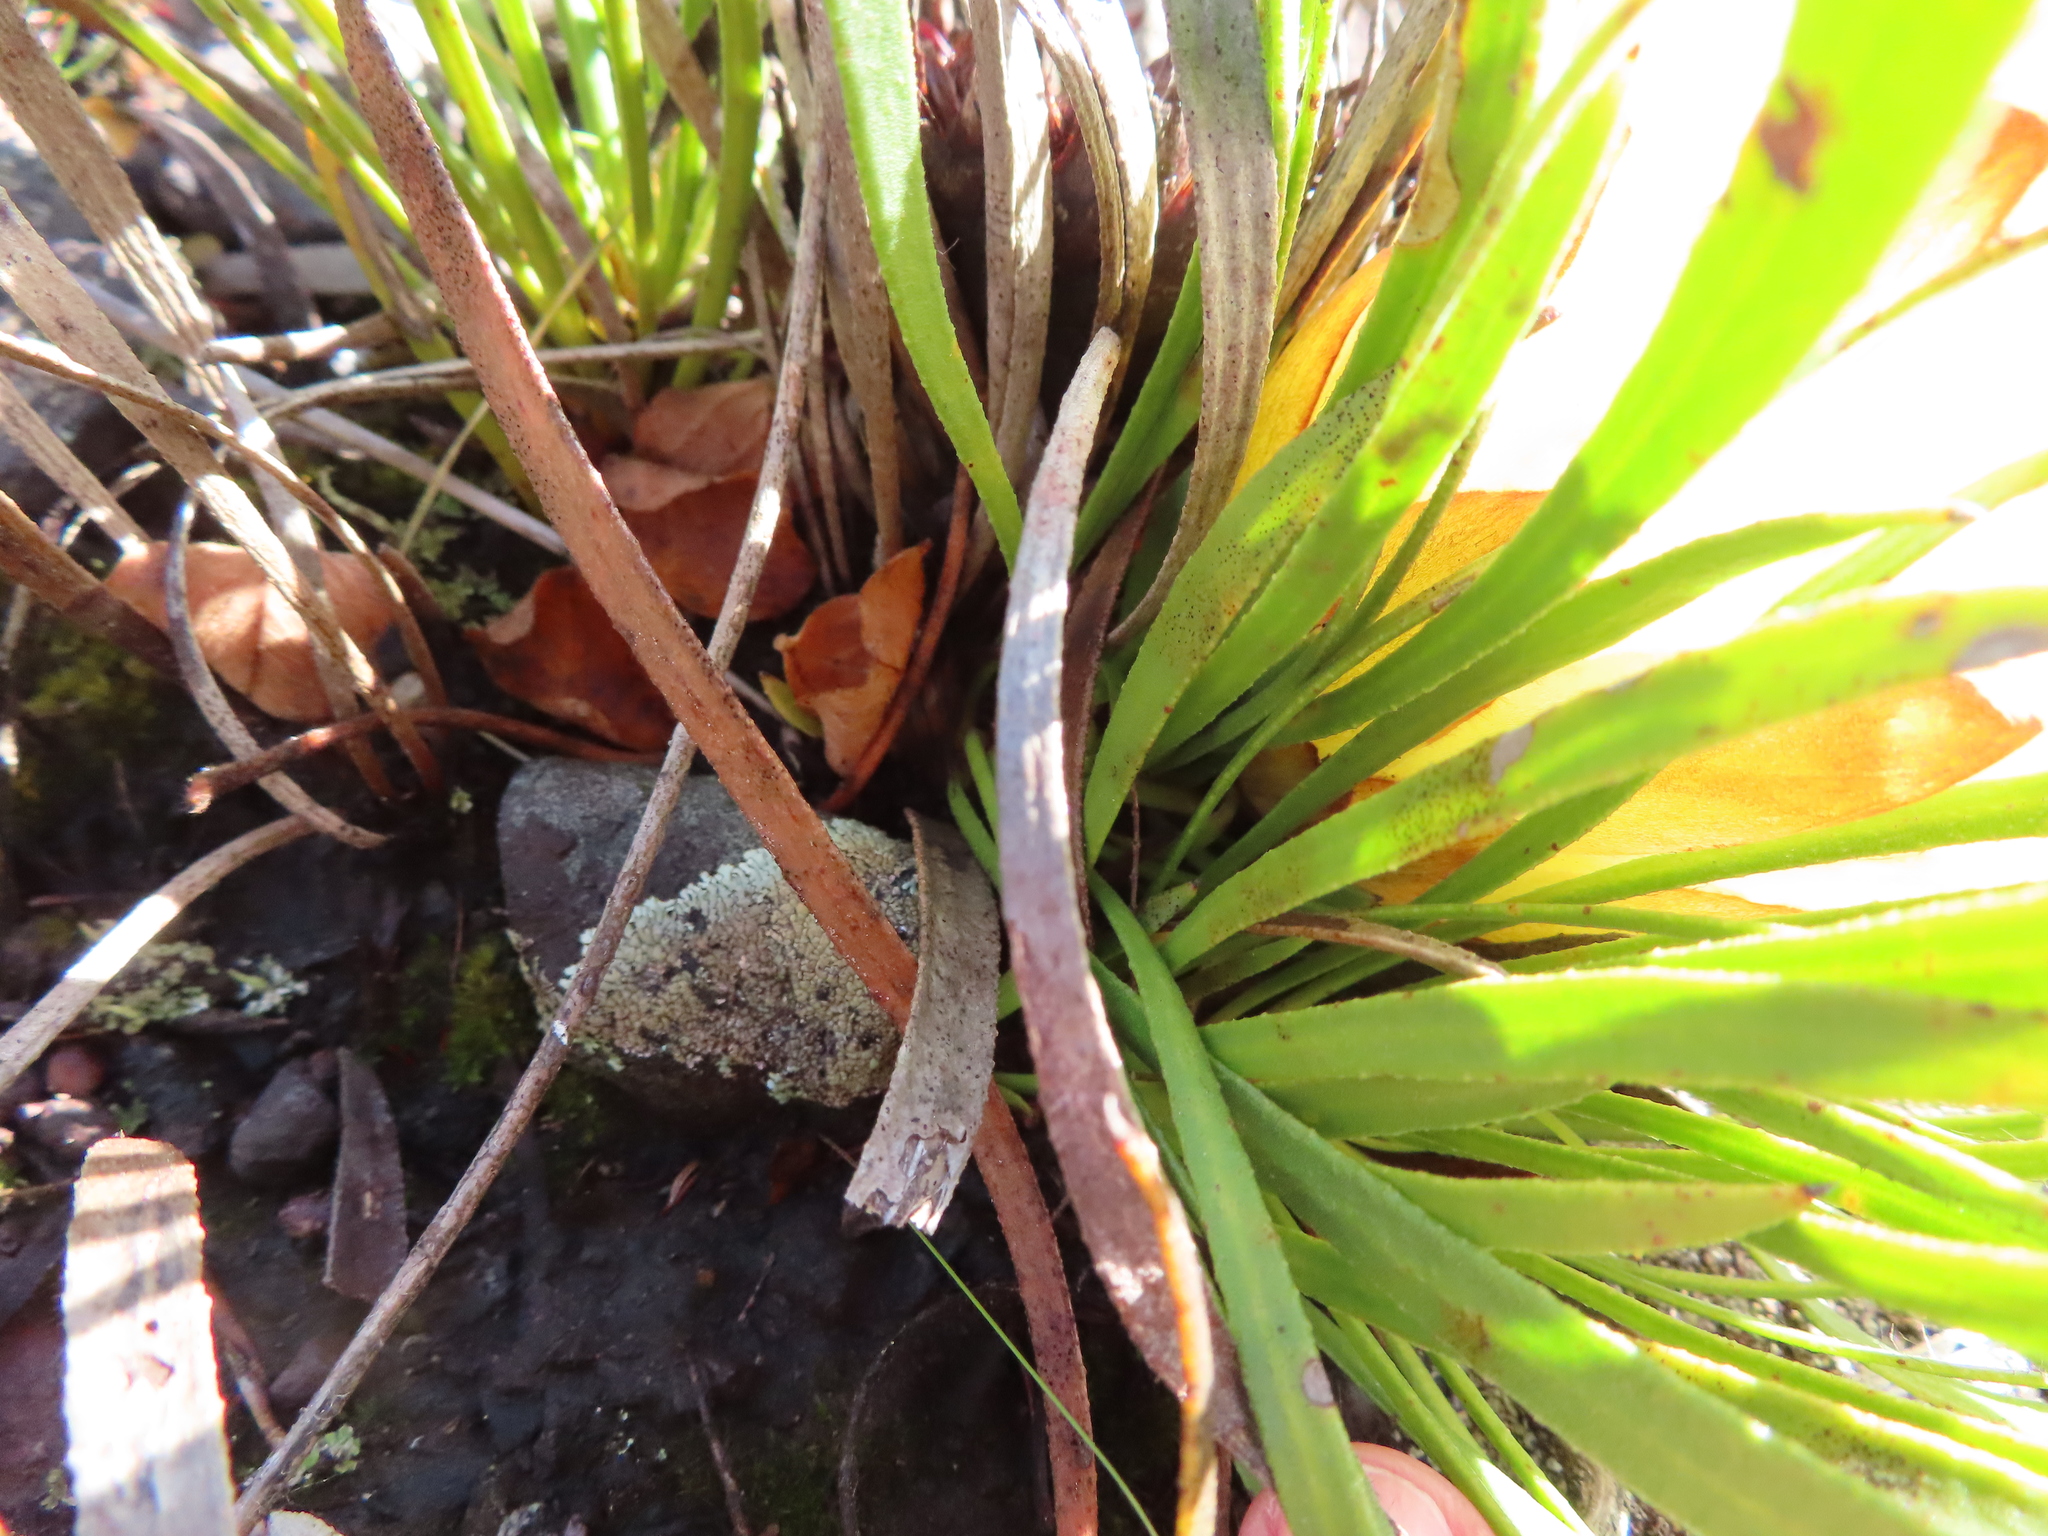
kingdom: Plantae
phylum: Tracheophyta
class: Magnoliopsida
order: Proteales
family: Proteaceae
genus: Protea
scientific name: Protea aspera
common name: Rough-leaf sugarbush
